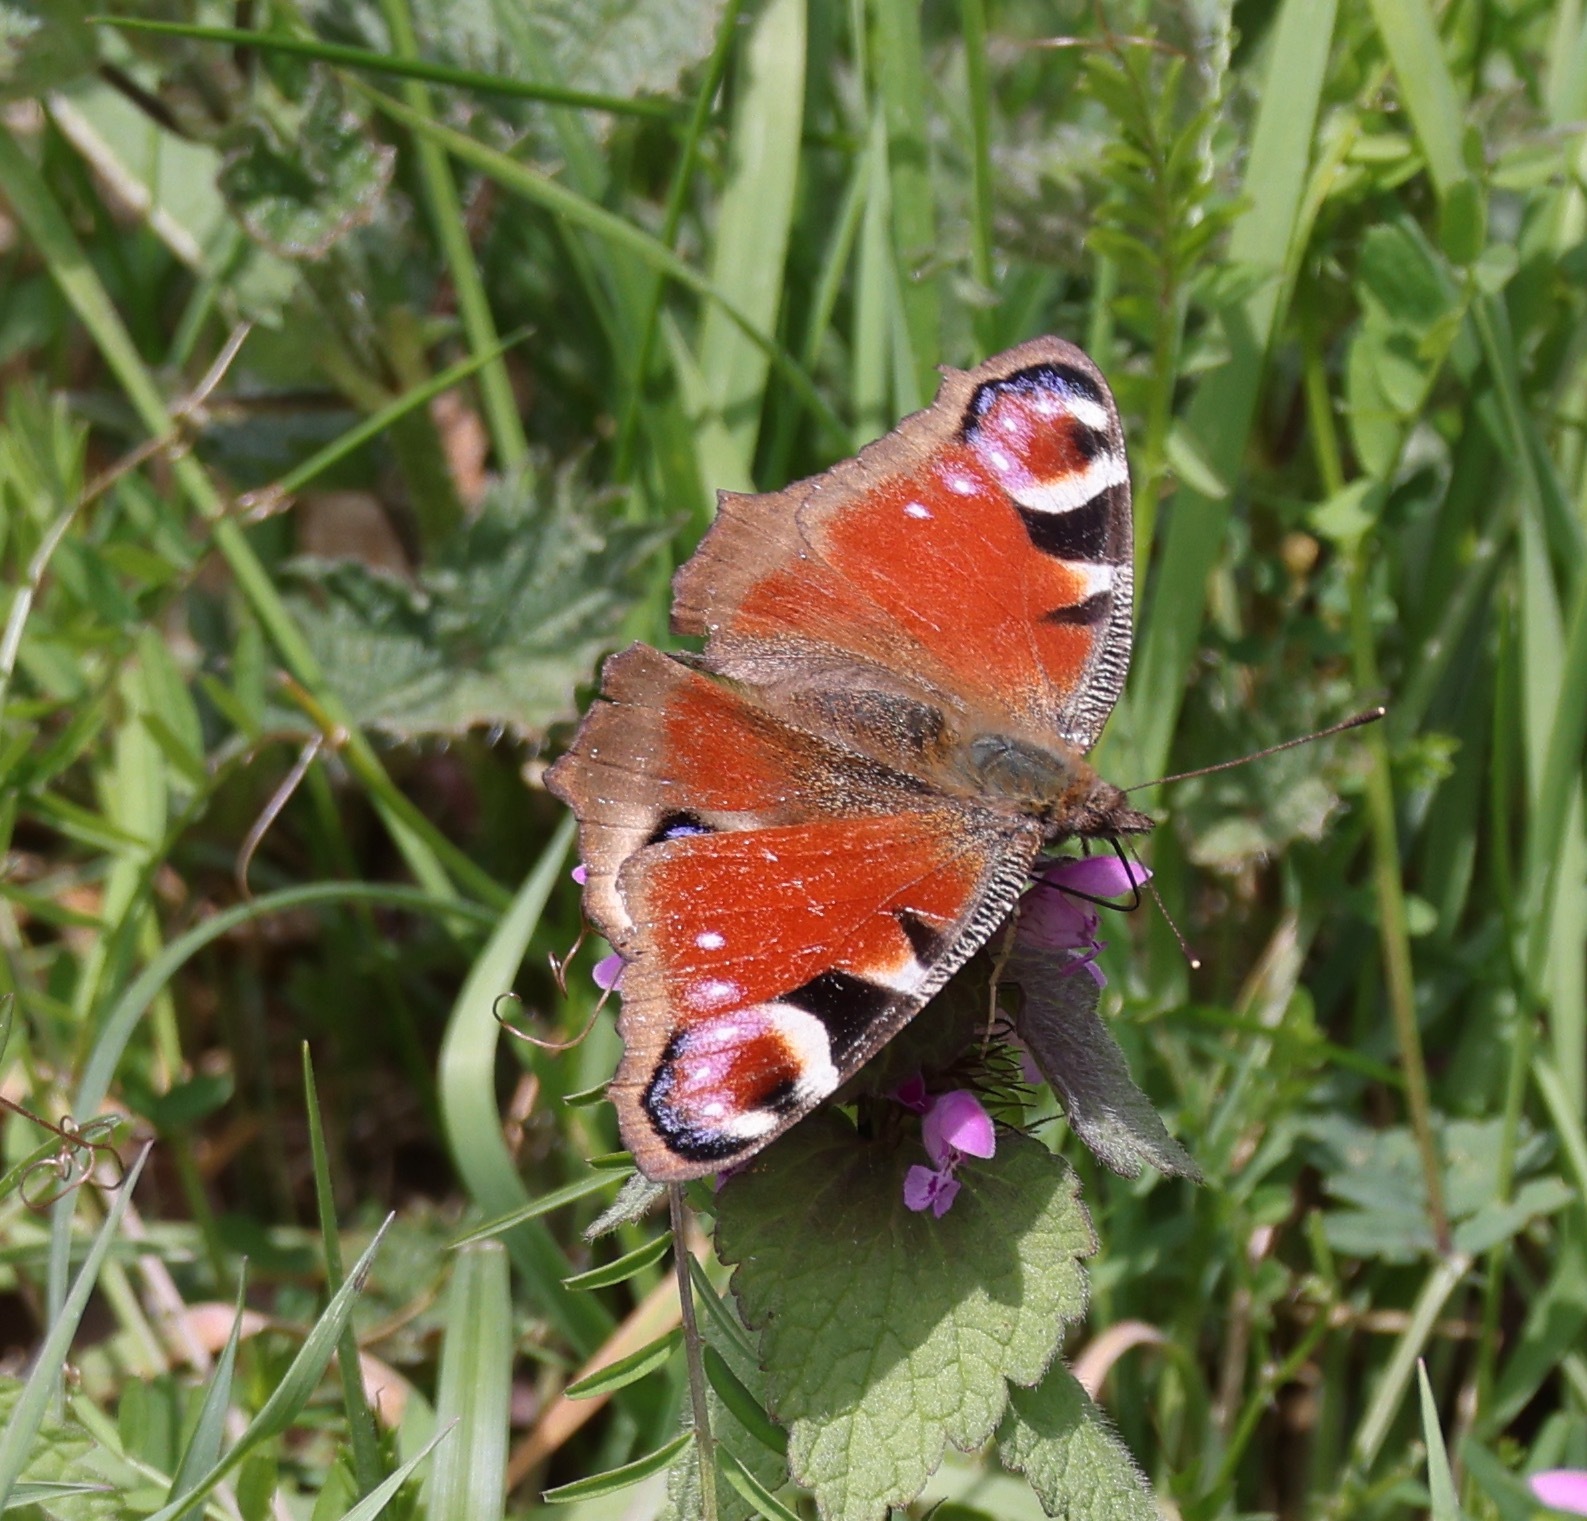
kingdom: Animalia
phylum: Arthropoda
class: Insecta
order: Lepidoptera
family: Nymphalidae
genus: Aglais
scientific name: Aglais io
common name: Peacock
